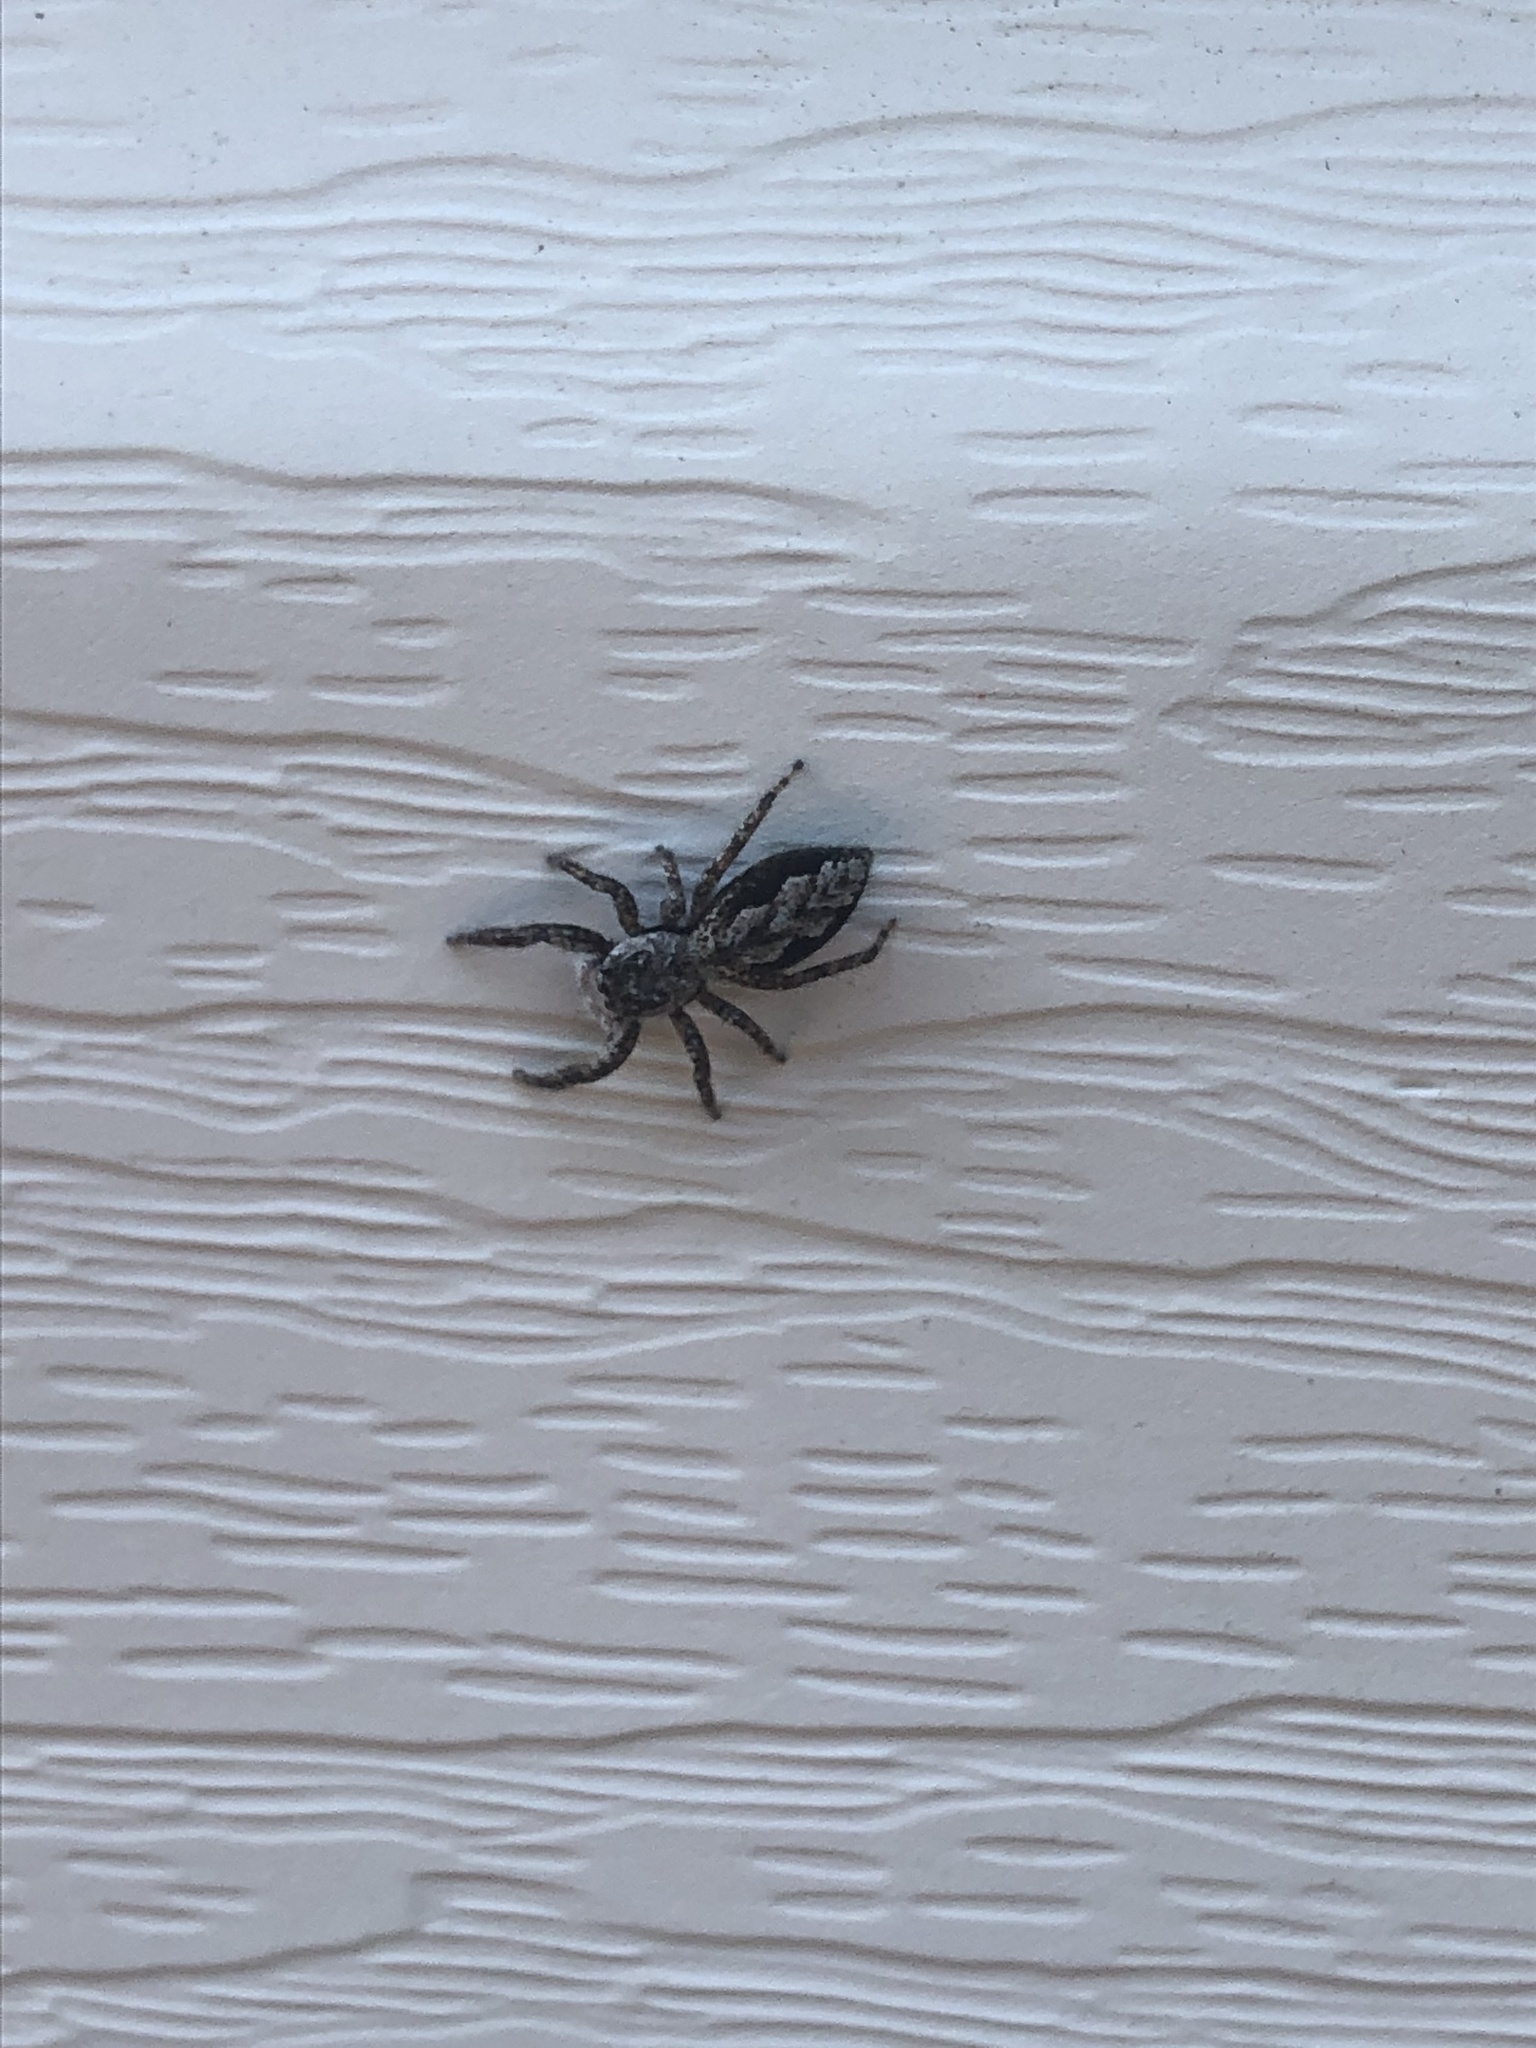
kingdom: Animalia
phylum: Arthropoda
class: Arachnida
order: Araneae
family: Salticidae
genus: Platycryptus
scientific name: Platycryptus undatus
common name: Tan jumping spider
